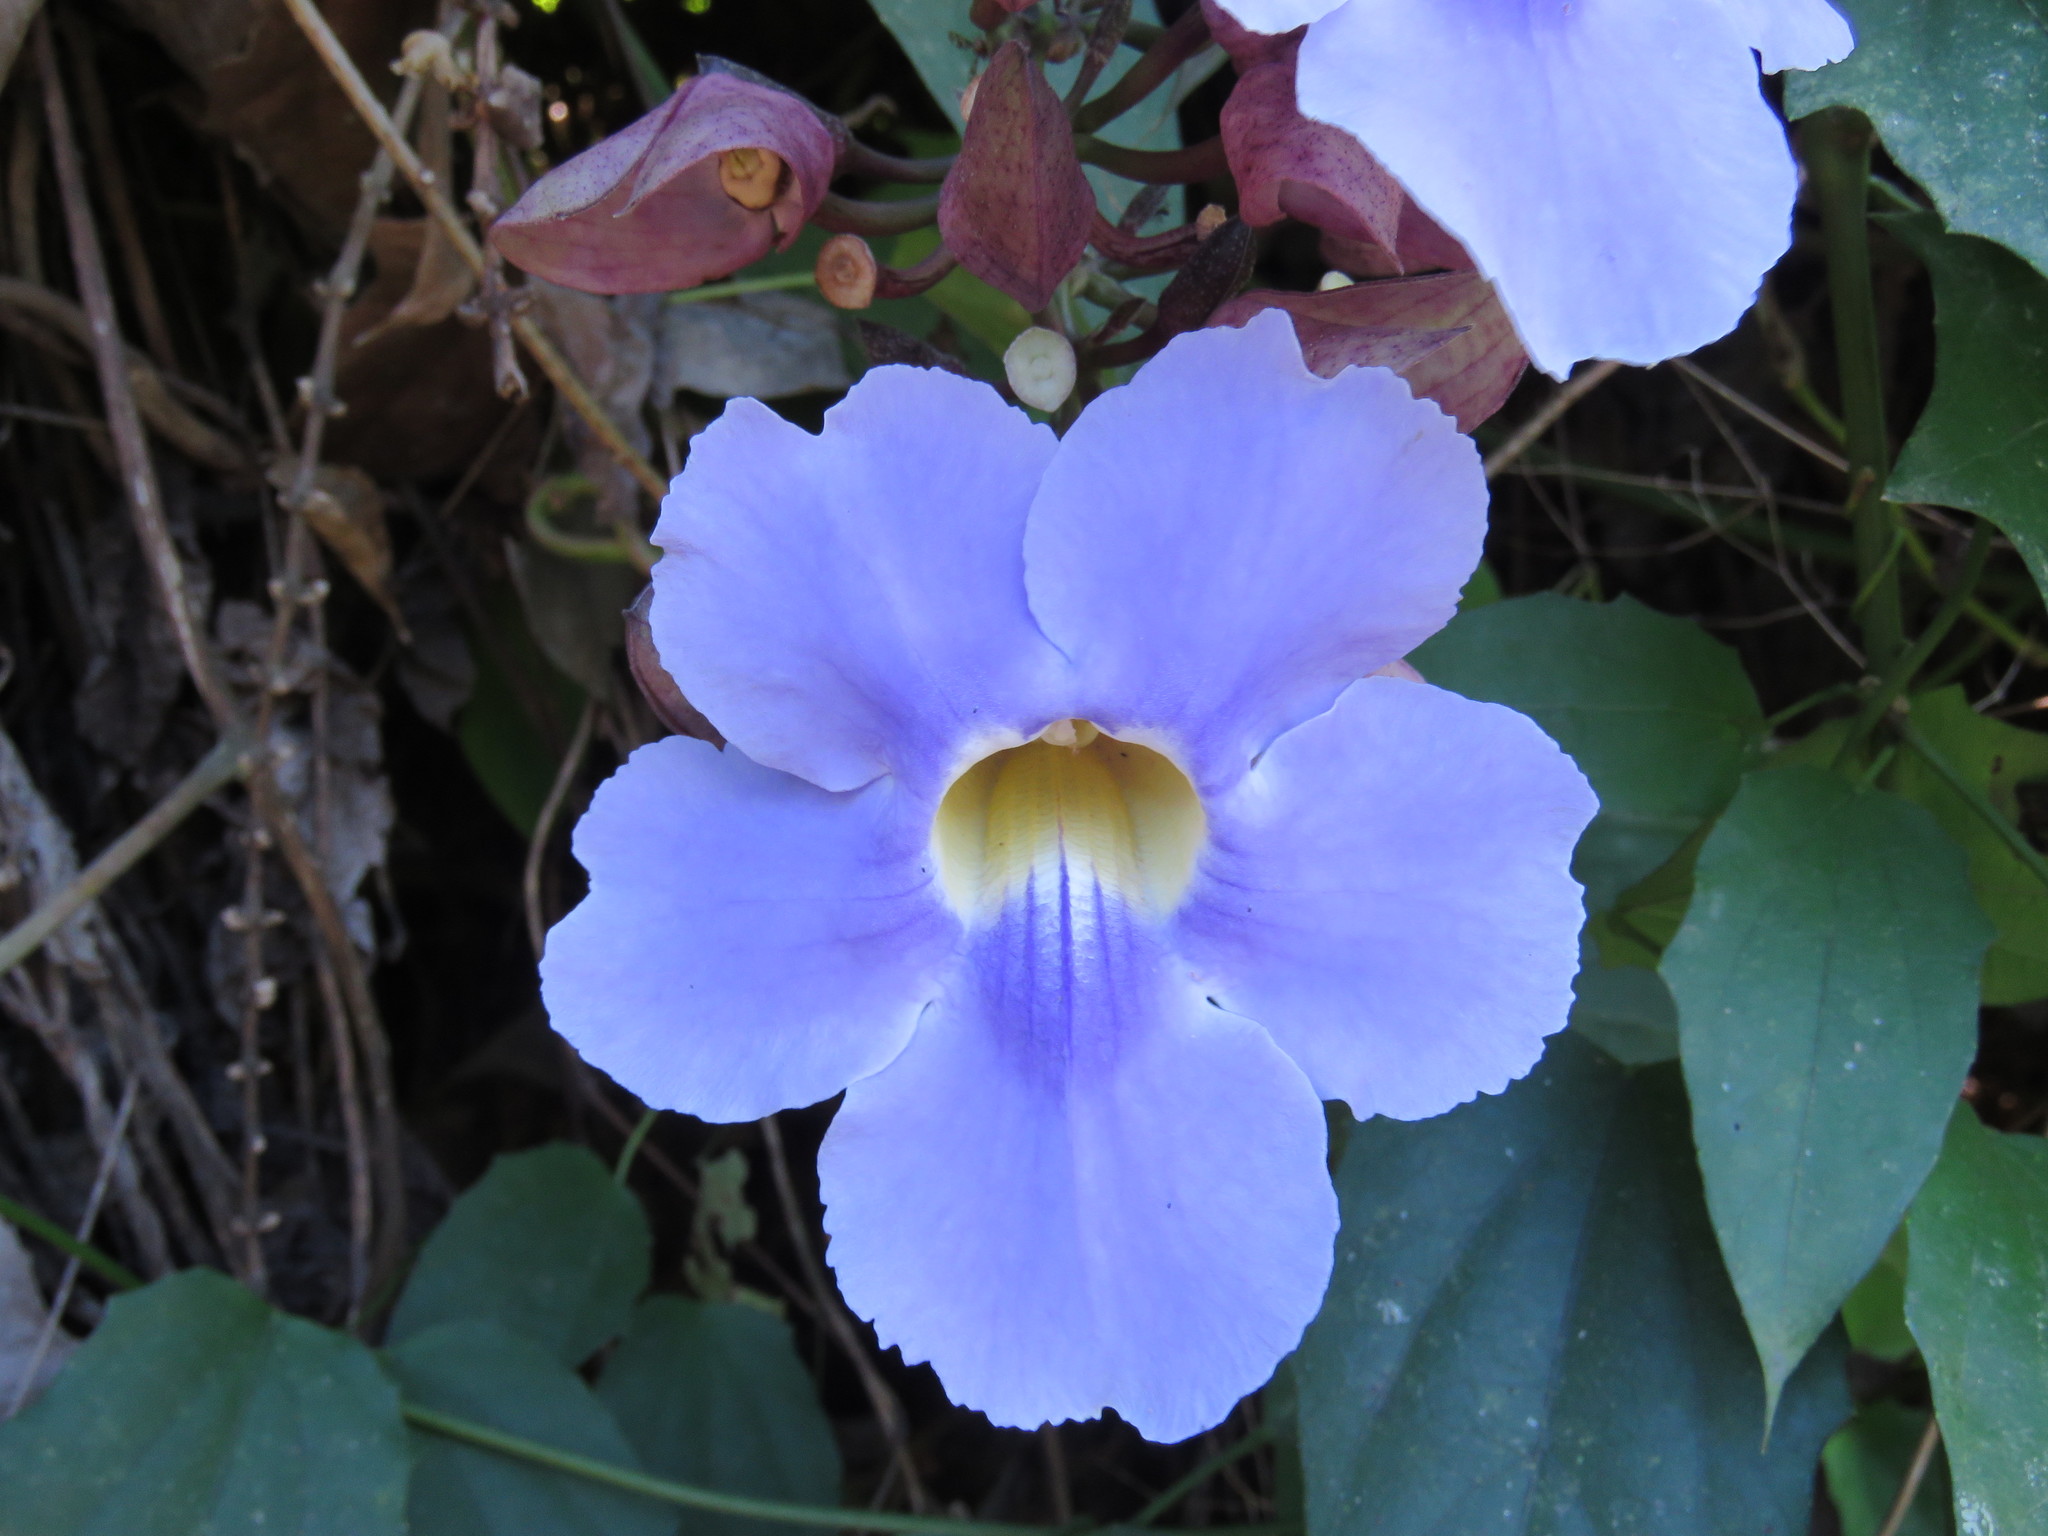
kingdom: Plantae
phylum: Tracheophyta
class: Magnoliopsida
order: Lamiales
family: Acanthaceae
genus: Thunbergia
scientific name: Thunbergia grandiflora
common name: Bengal trumpet
